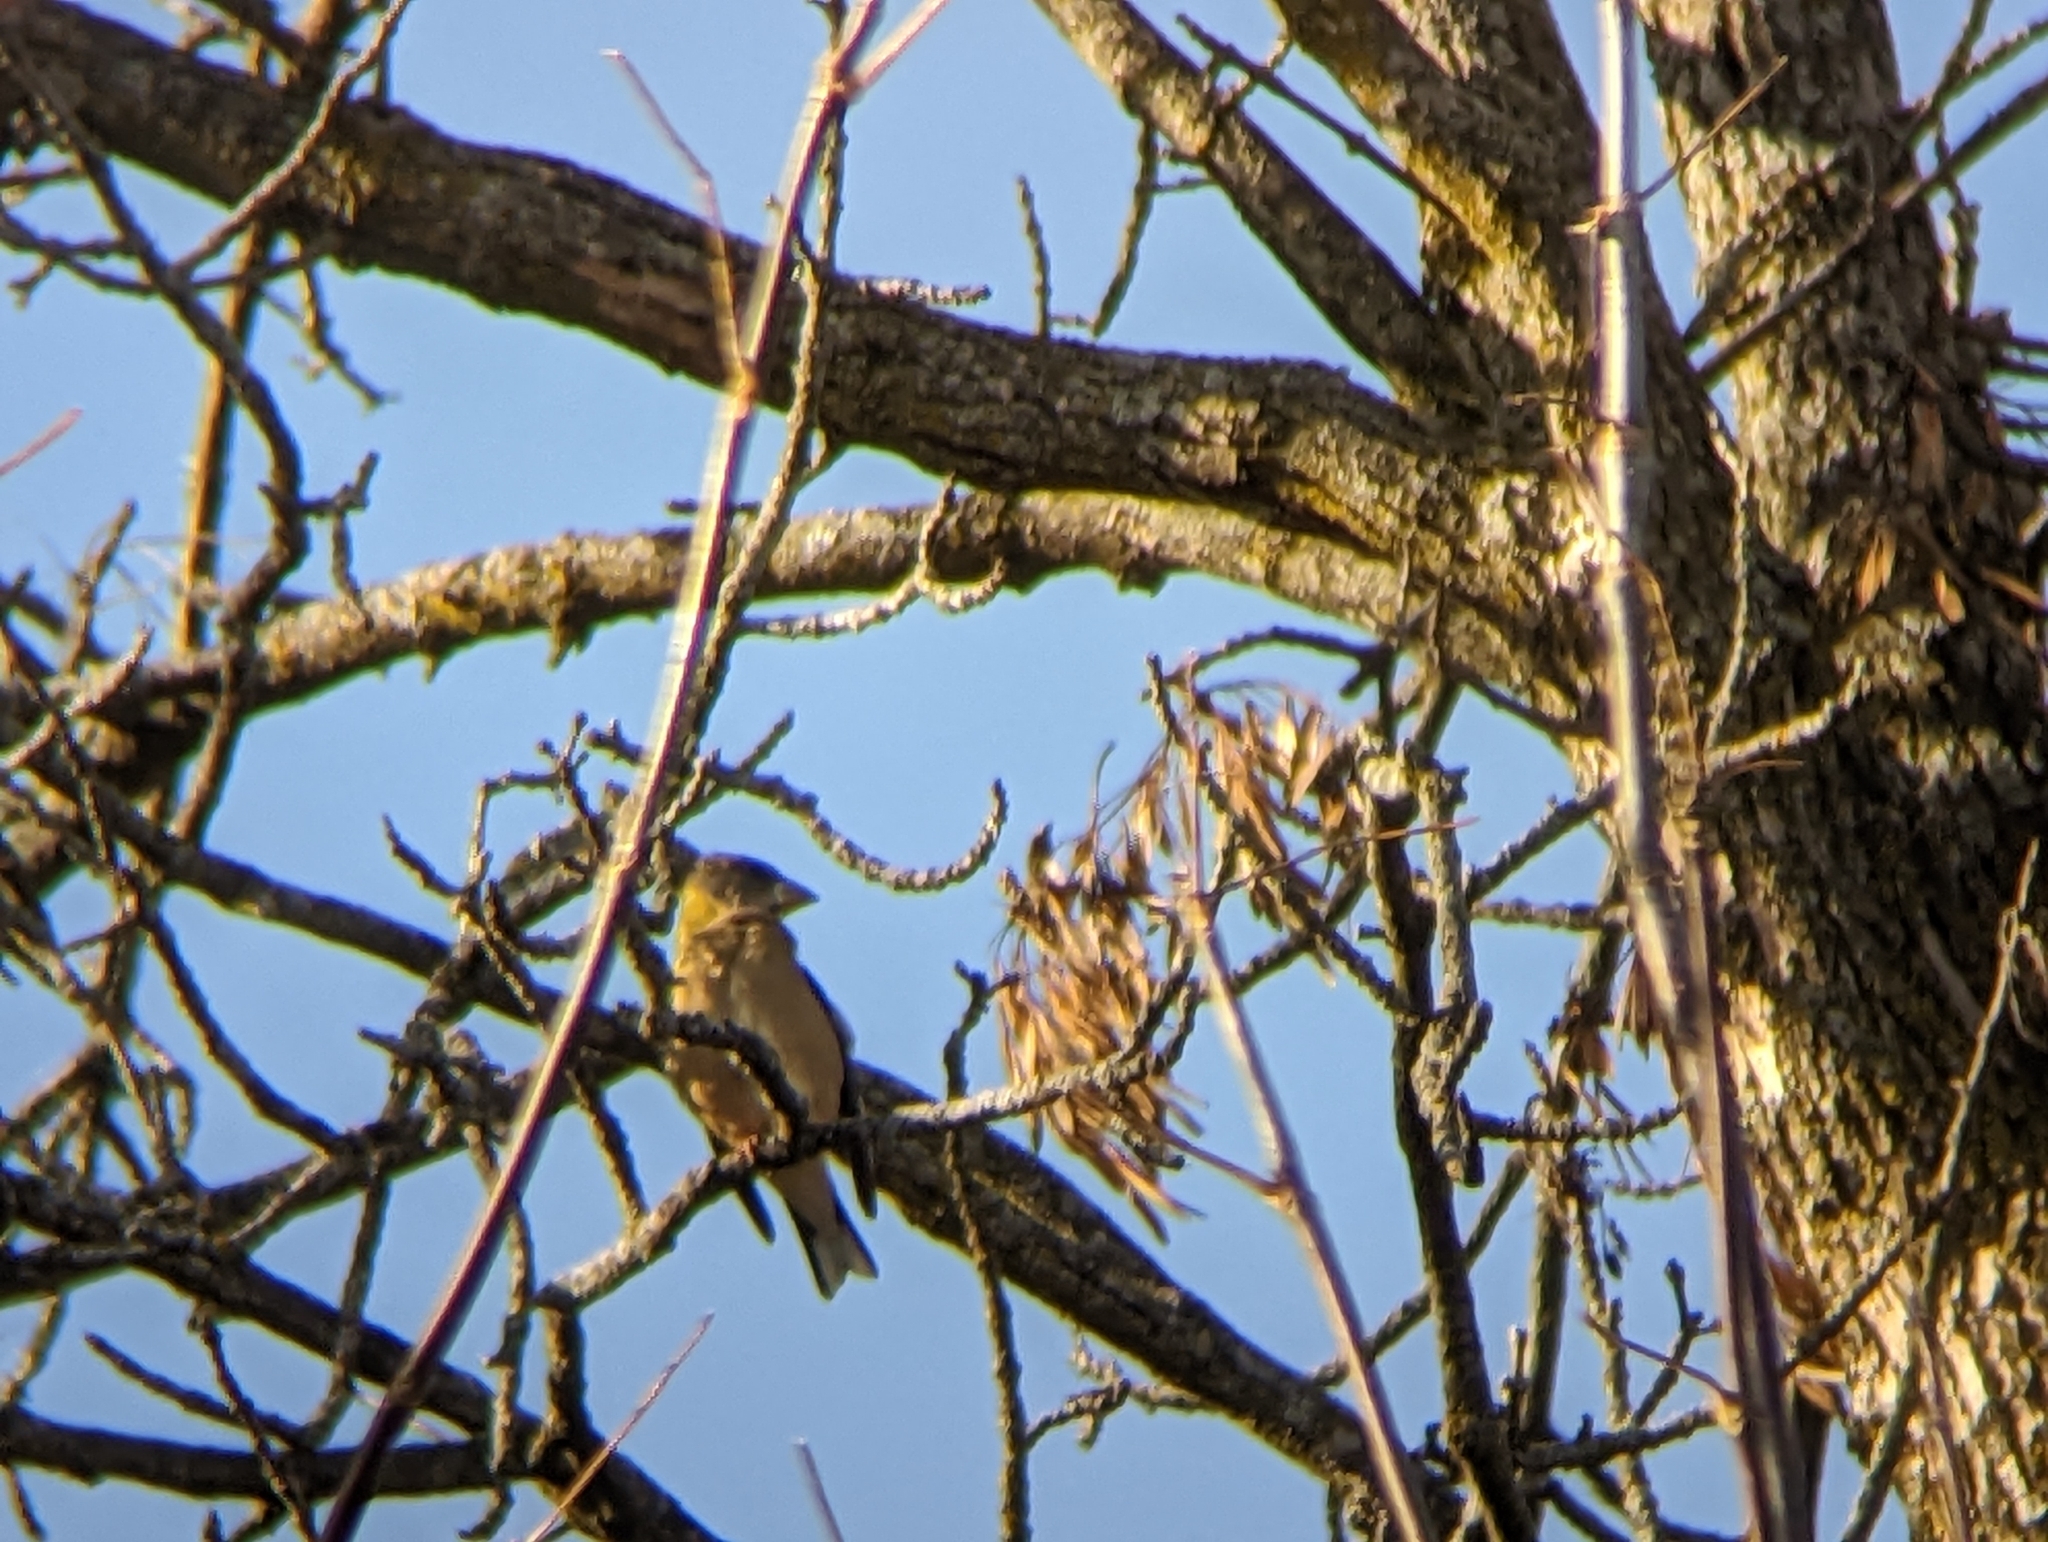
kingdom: Animalia
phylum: Chordata
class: Aves
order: Passeriformes
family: Fringillidae
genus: Hesperiphona
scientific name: Hesperiphona vespertina
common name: Evening grosbeak
